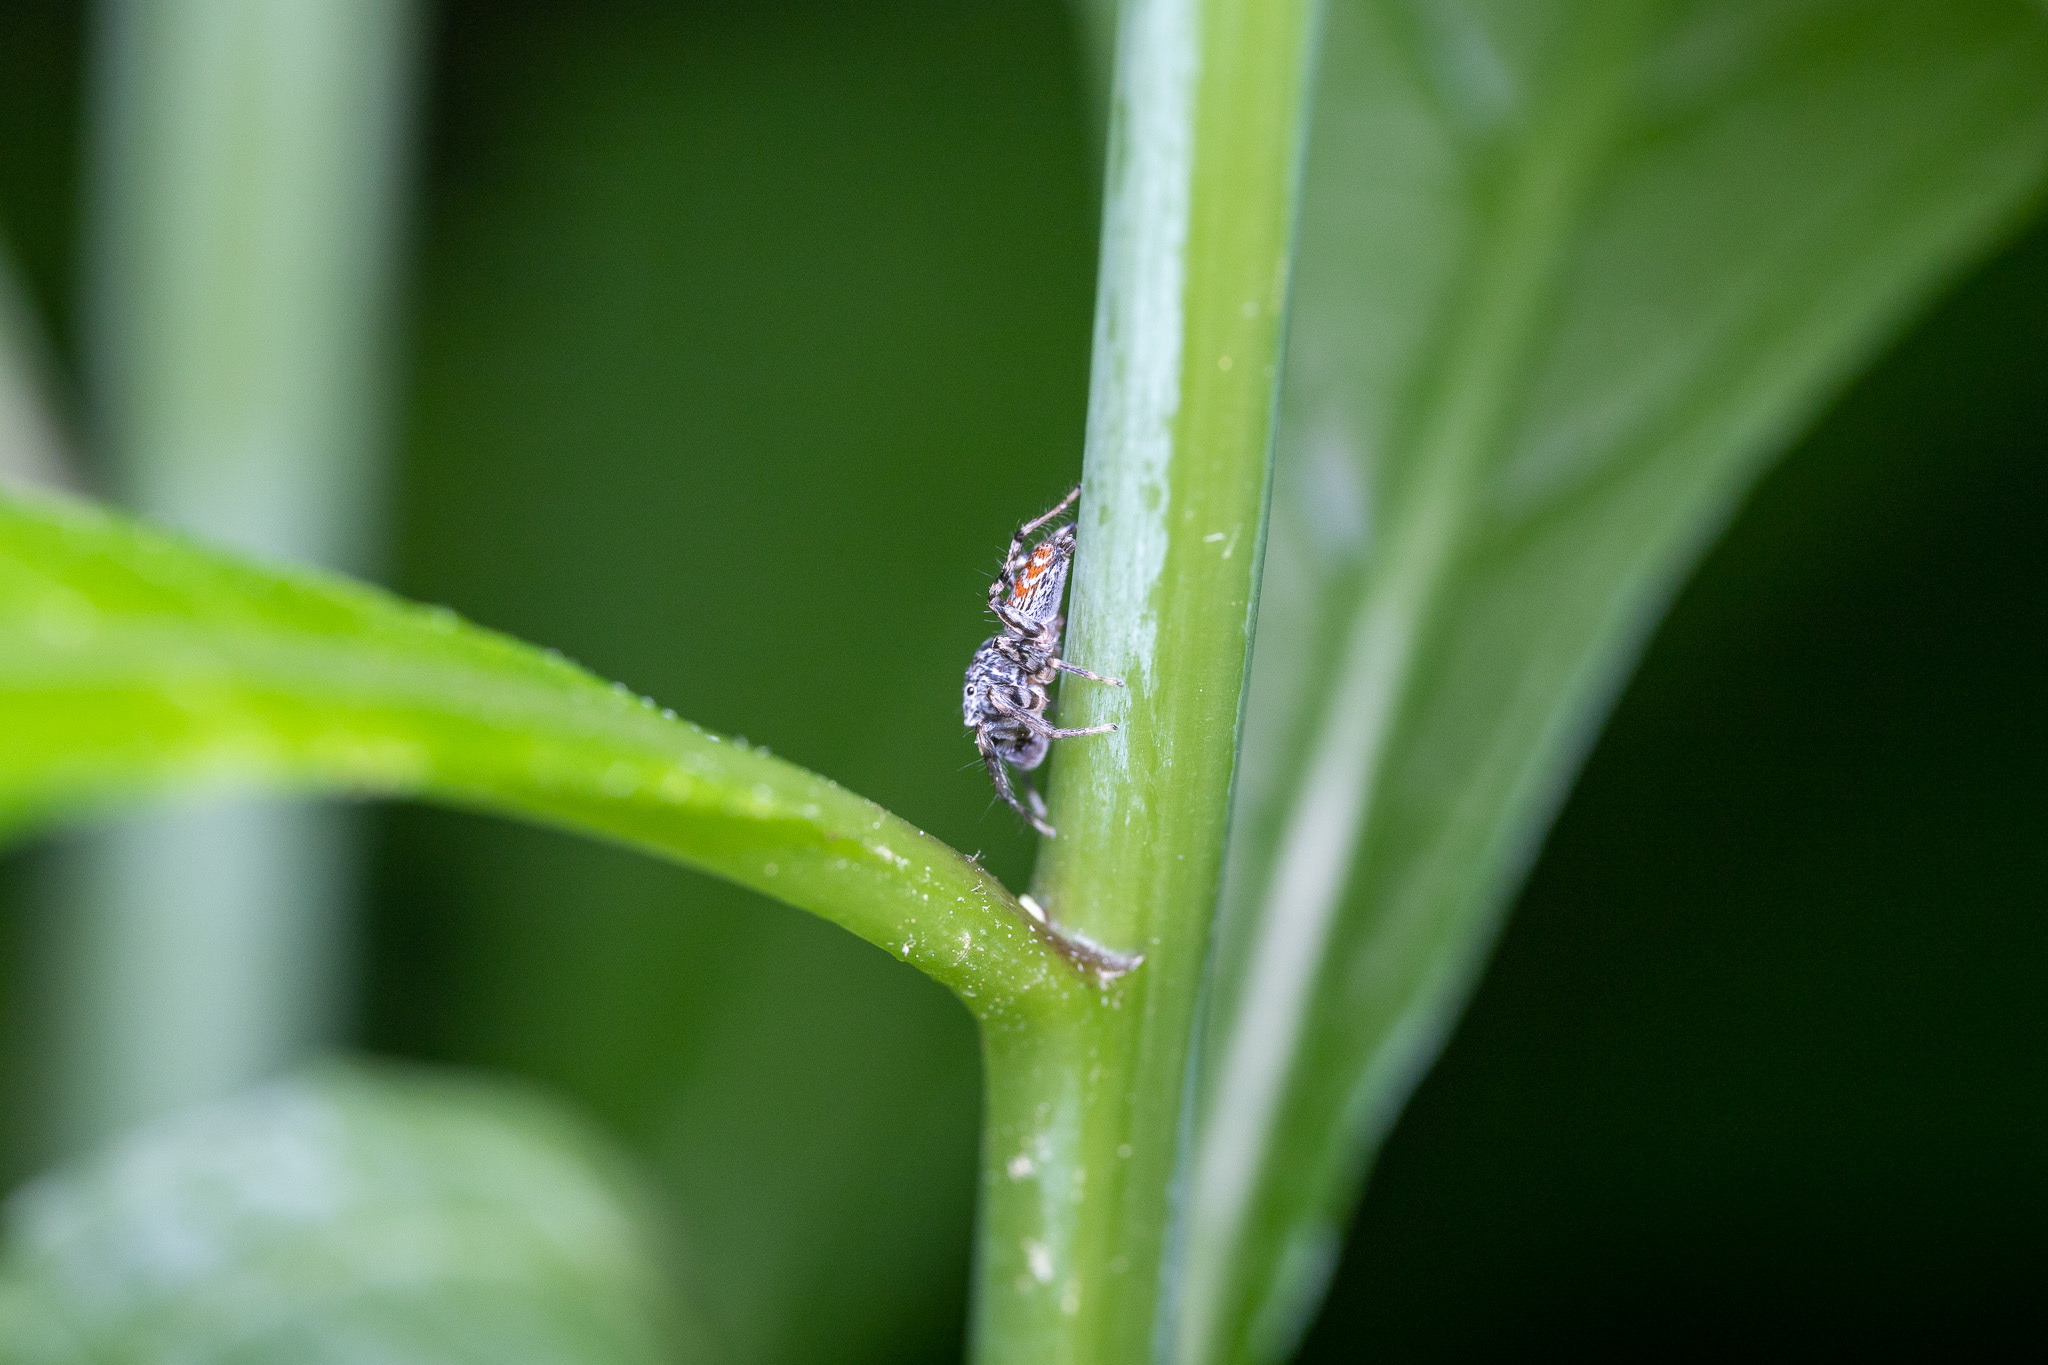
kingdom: Animalia
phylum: Arthropoda
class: Arachnida
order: Araneae
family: Salticidae
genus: Maevia
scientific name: Maevia inclemens
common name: Dimorphic jumper
